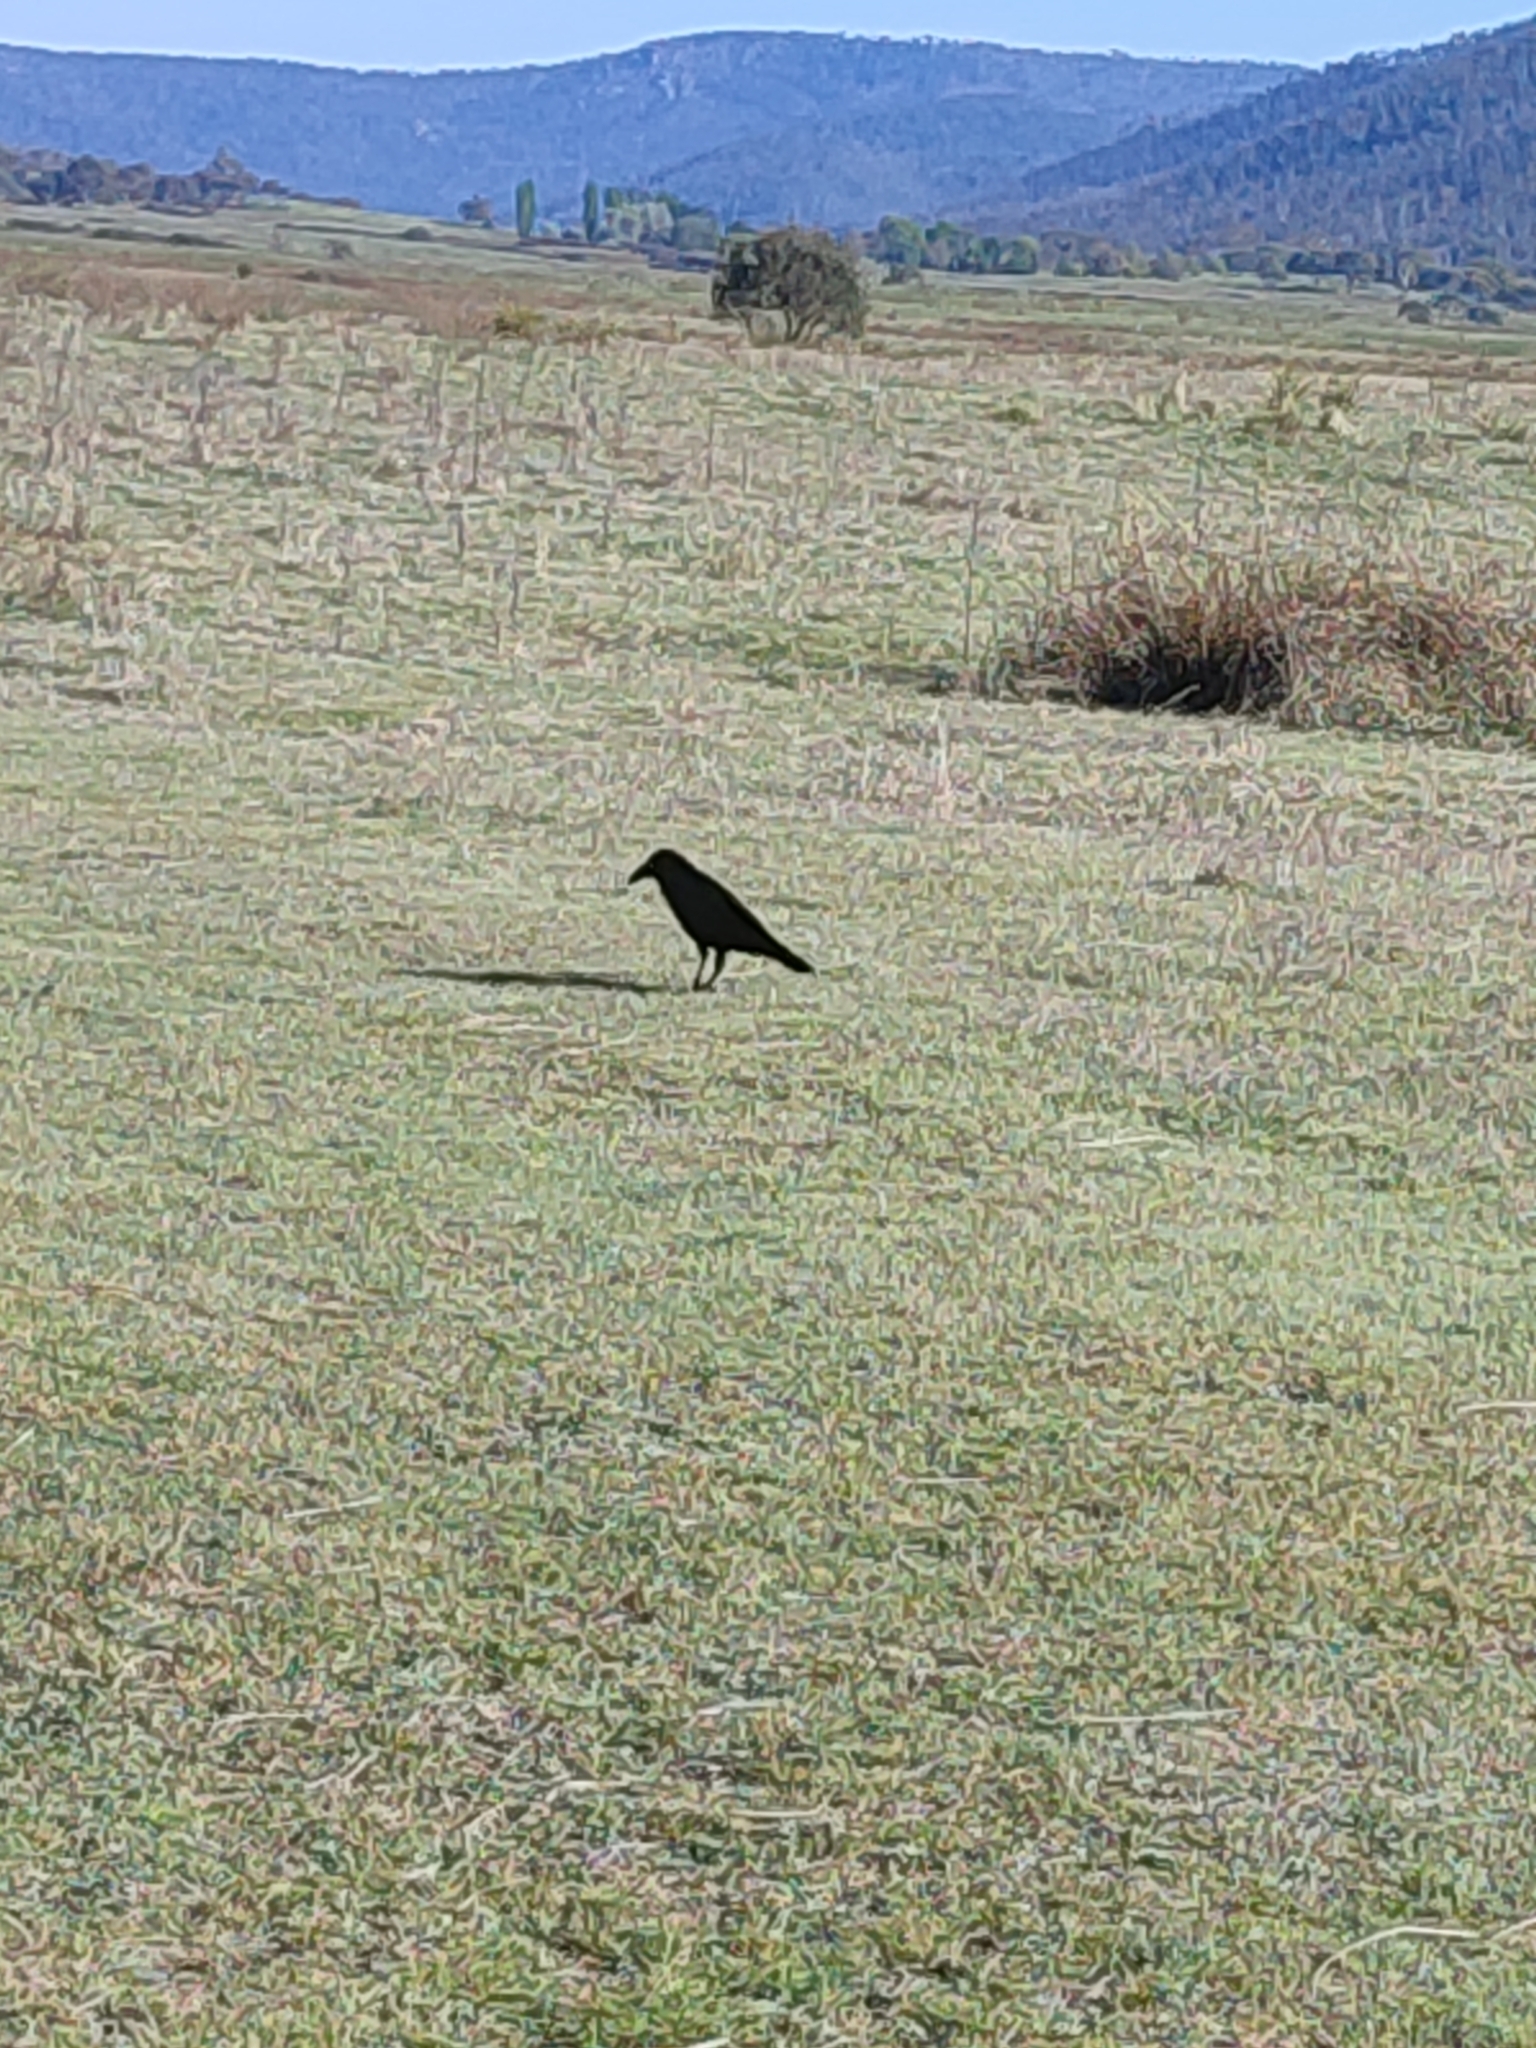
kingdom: Animalia
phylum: Chordata
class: Aves
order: Passeriformes
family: Corvidae
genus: Corvus
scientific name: Corvus coronoides
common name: Australian raven
